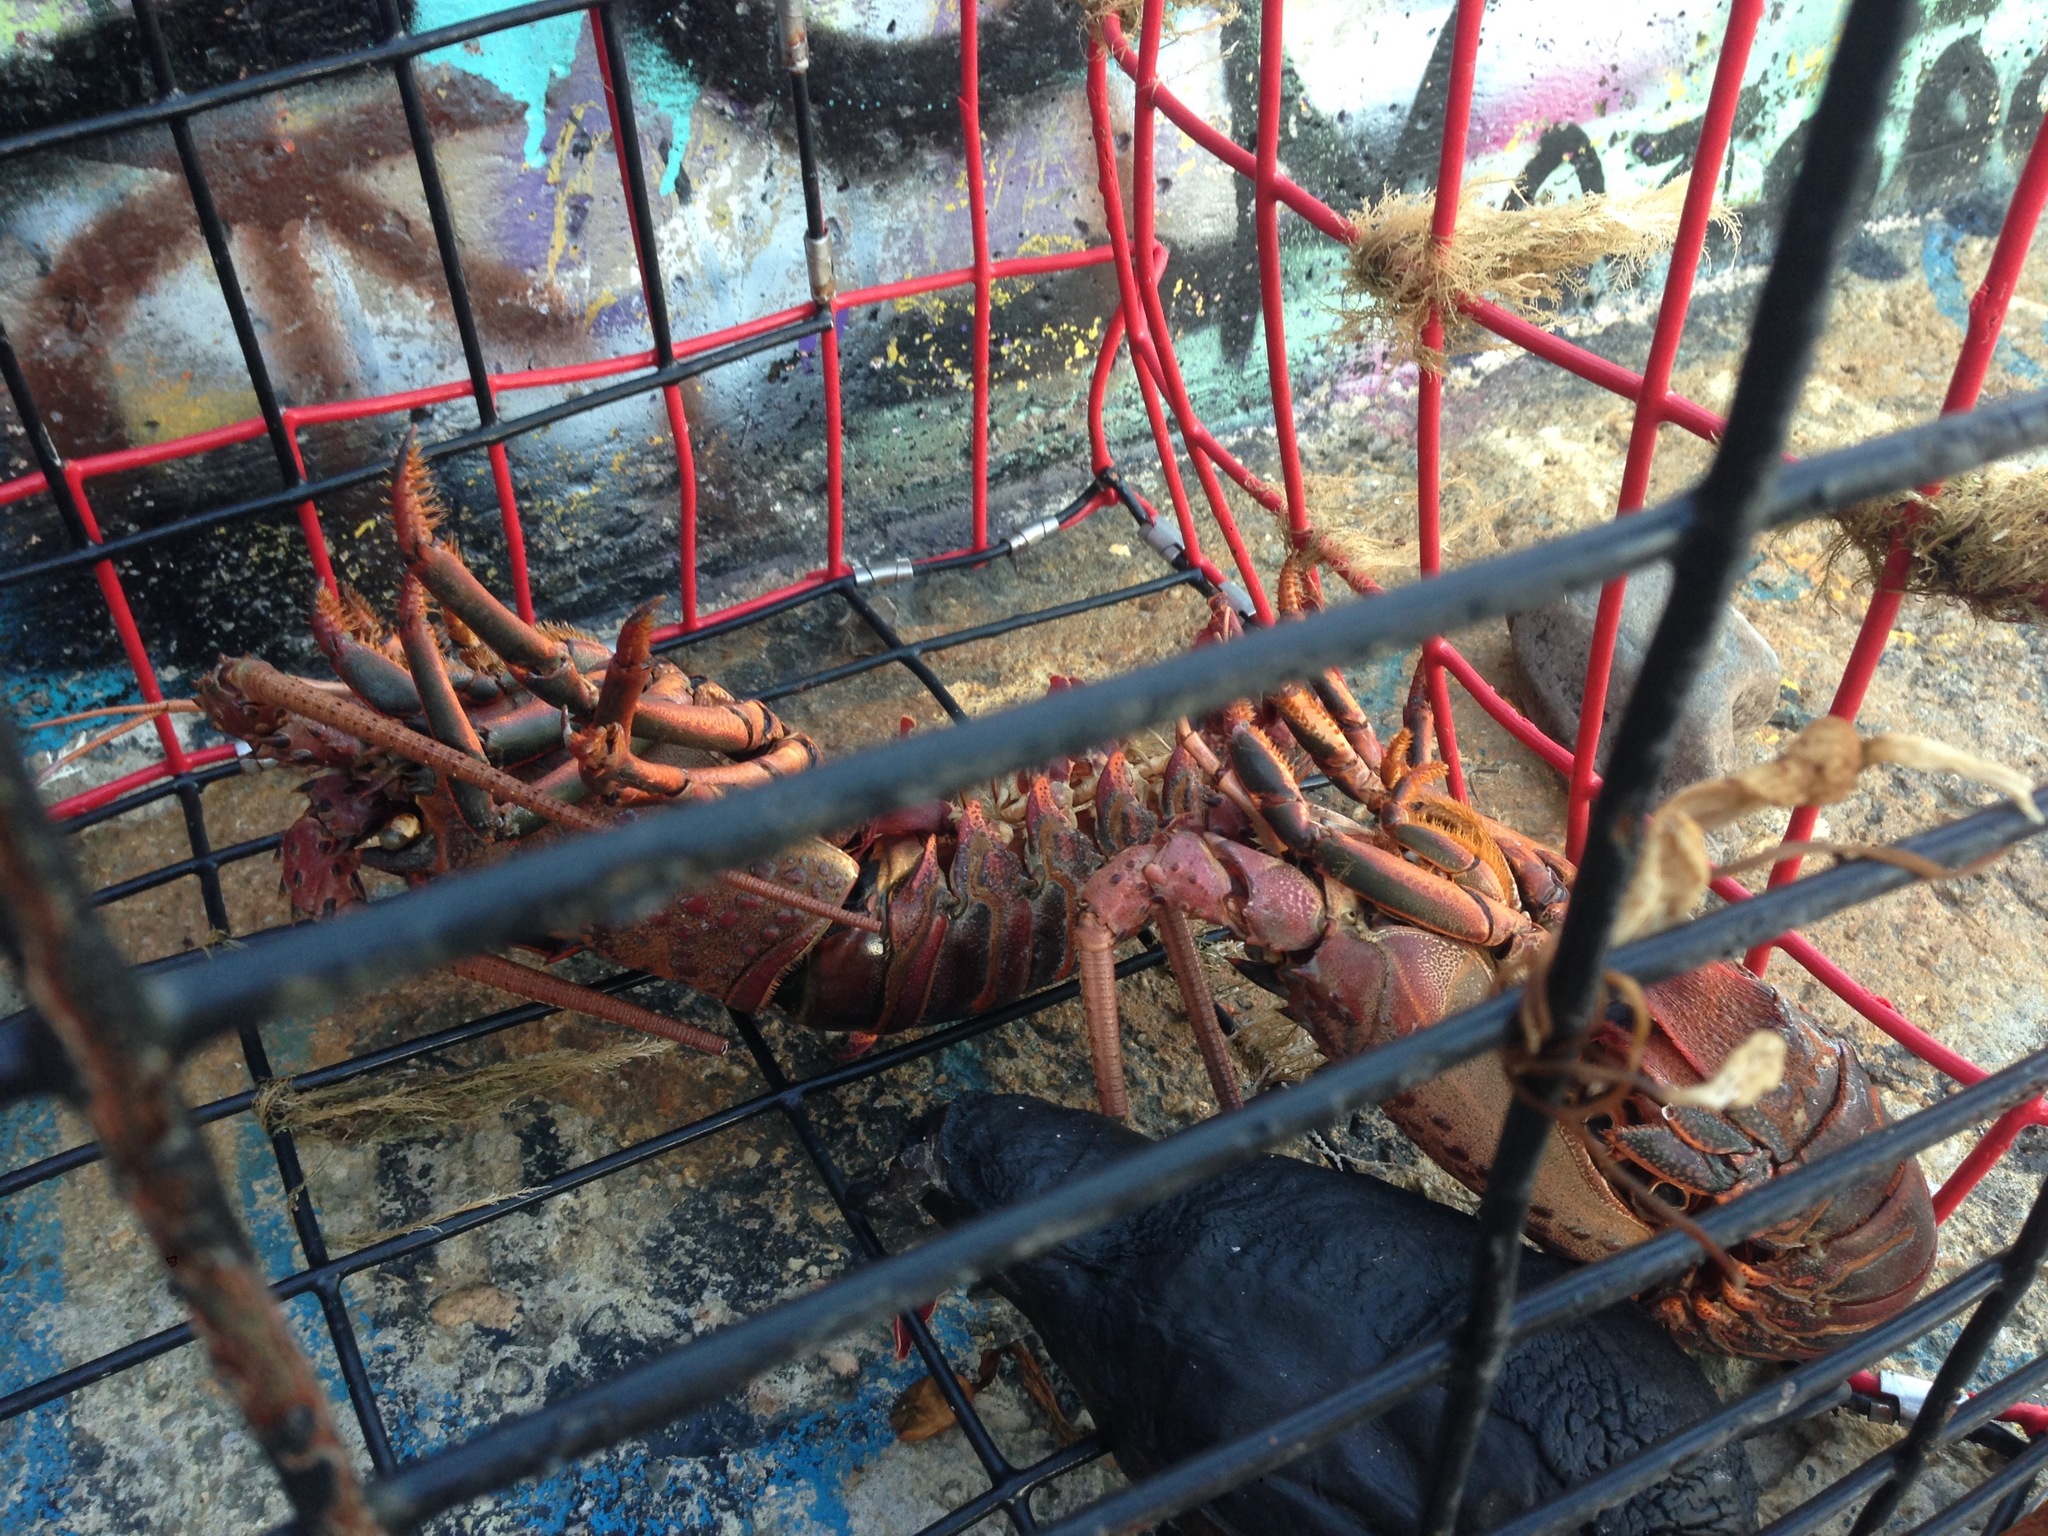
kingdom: Animalia
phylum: Arthropoda
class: Malacostraca
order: Decapoda
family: Palinuridae
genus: Panulirus
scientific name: Panulirus interruptus
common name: California spiny lobster
